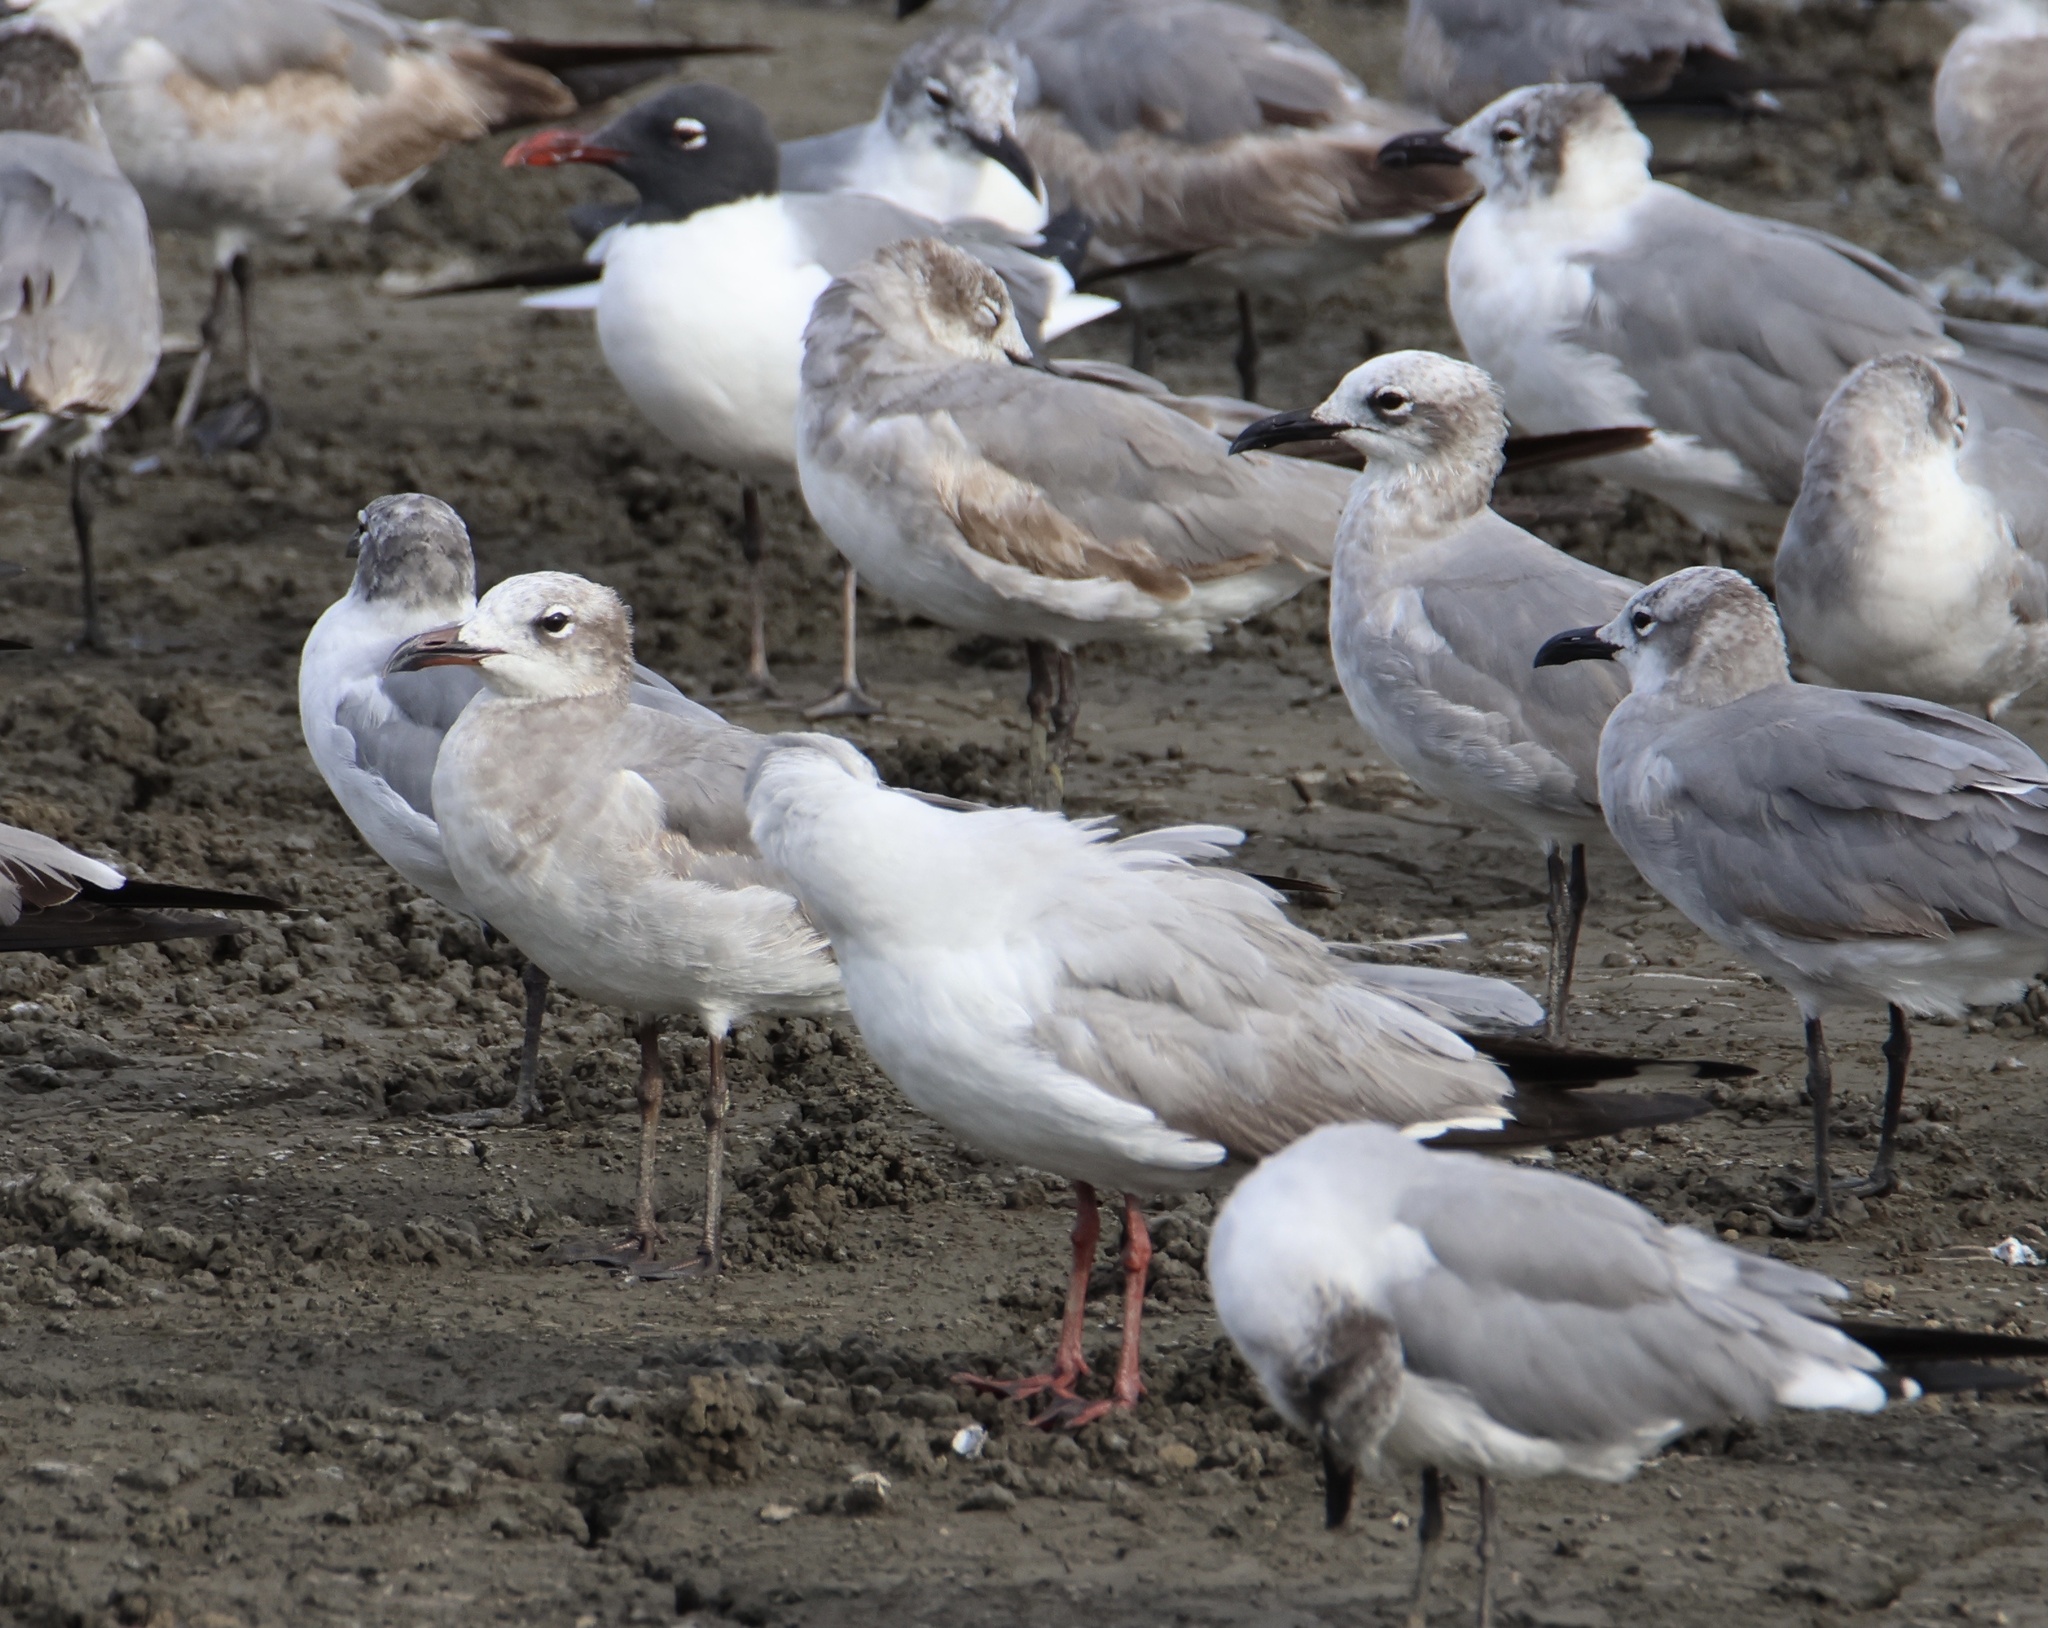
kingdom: Animalia
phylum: Chordata
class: Aves
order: Charadriiformes
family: Laridae
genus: Leucophaeus
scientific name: Leucophaeus atricilla
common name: Laughing gull
